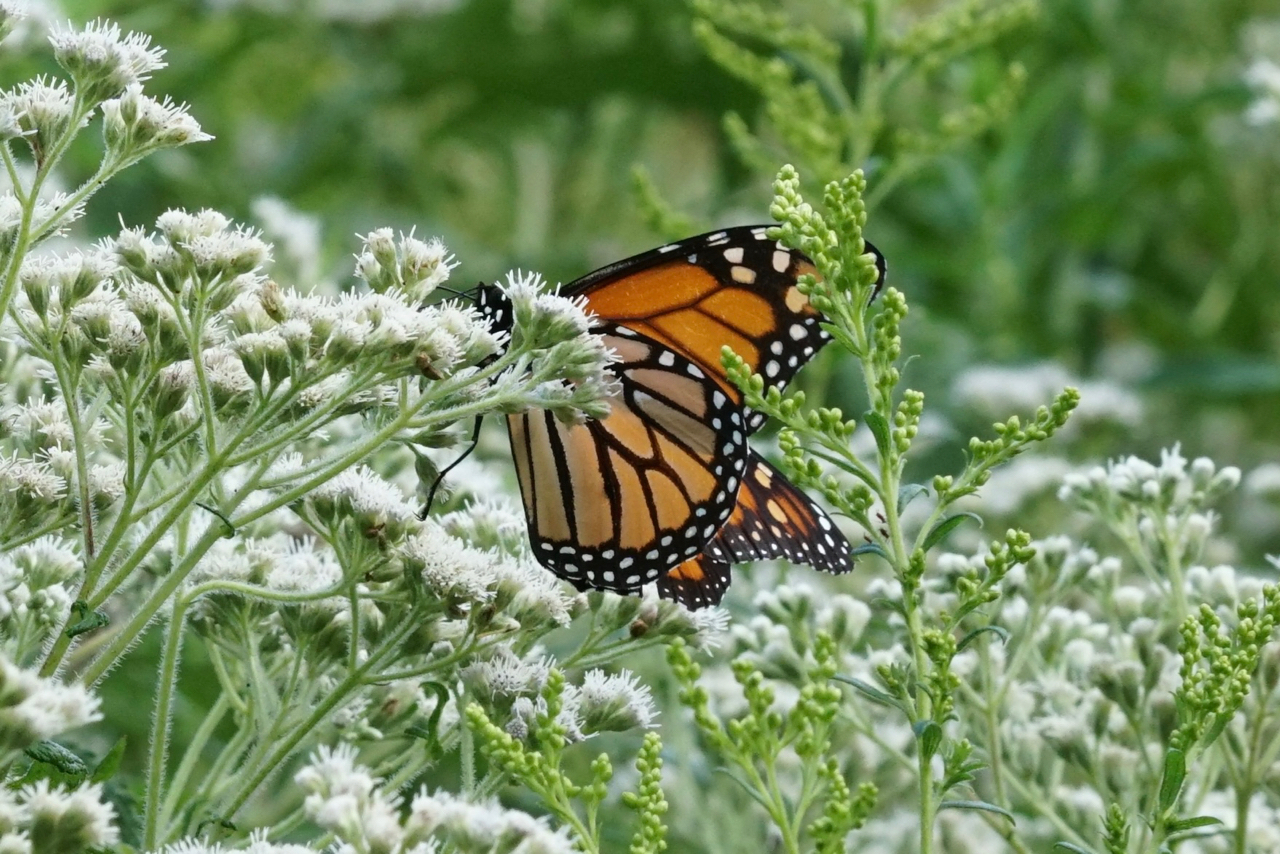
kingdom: Animalia
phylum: Arthropoda
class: Insecta
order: Lepidoptera
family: Nymphalidae
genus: Danaus
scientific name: Danaus plexippus
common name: Monarch
